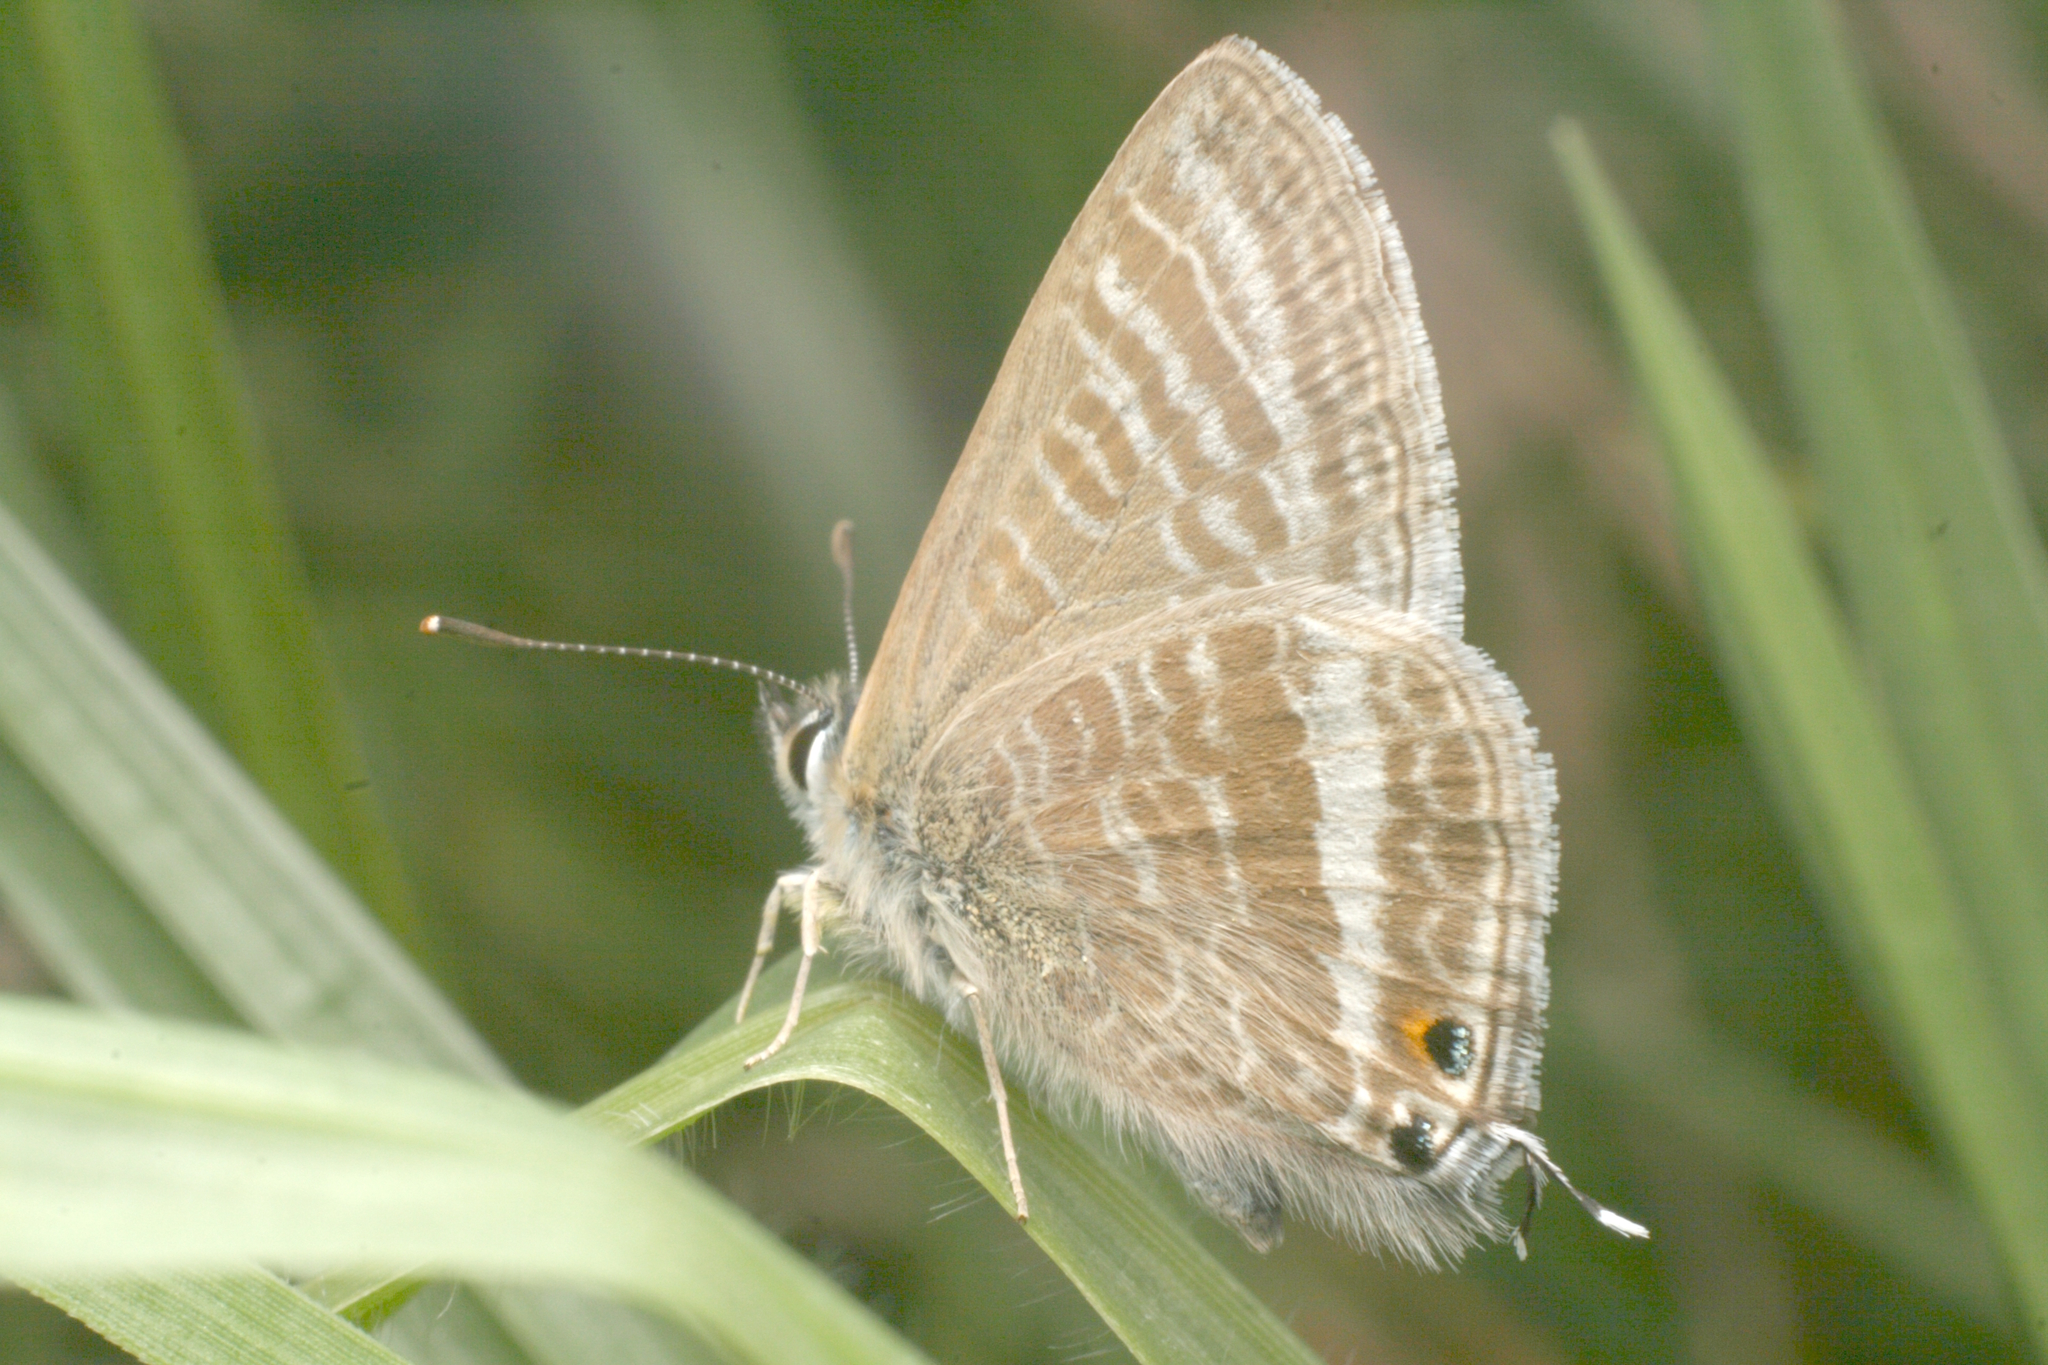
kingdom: Animalia
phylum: Arthropoda
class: Insecta
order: Lepidoptera
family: Lycaenidae
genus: Lampides
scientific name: Lampides boeticus
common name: Long-tailed blue
